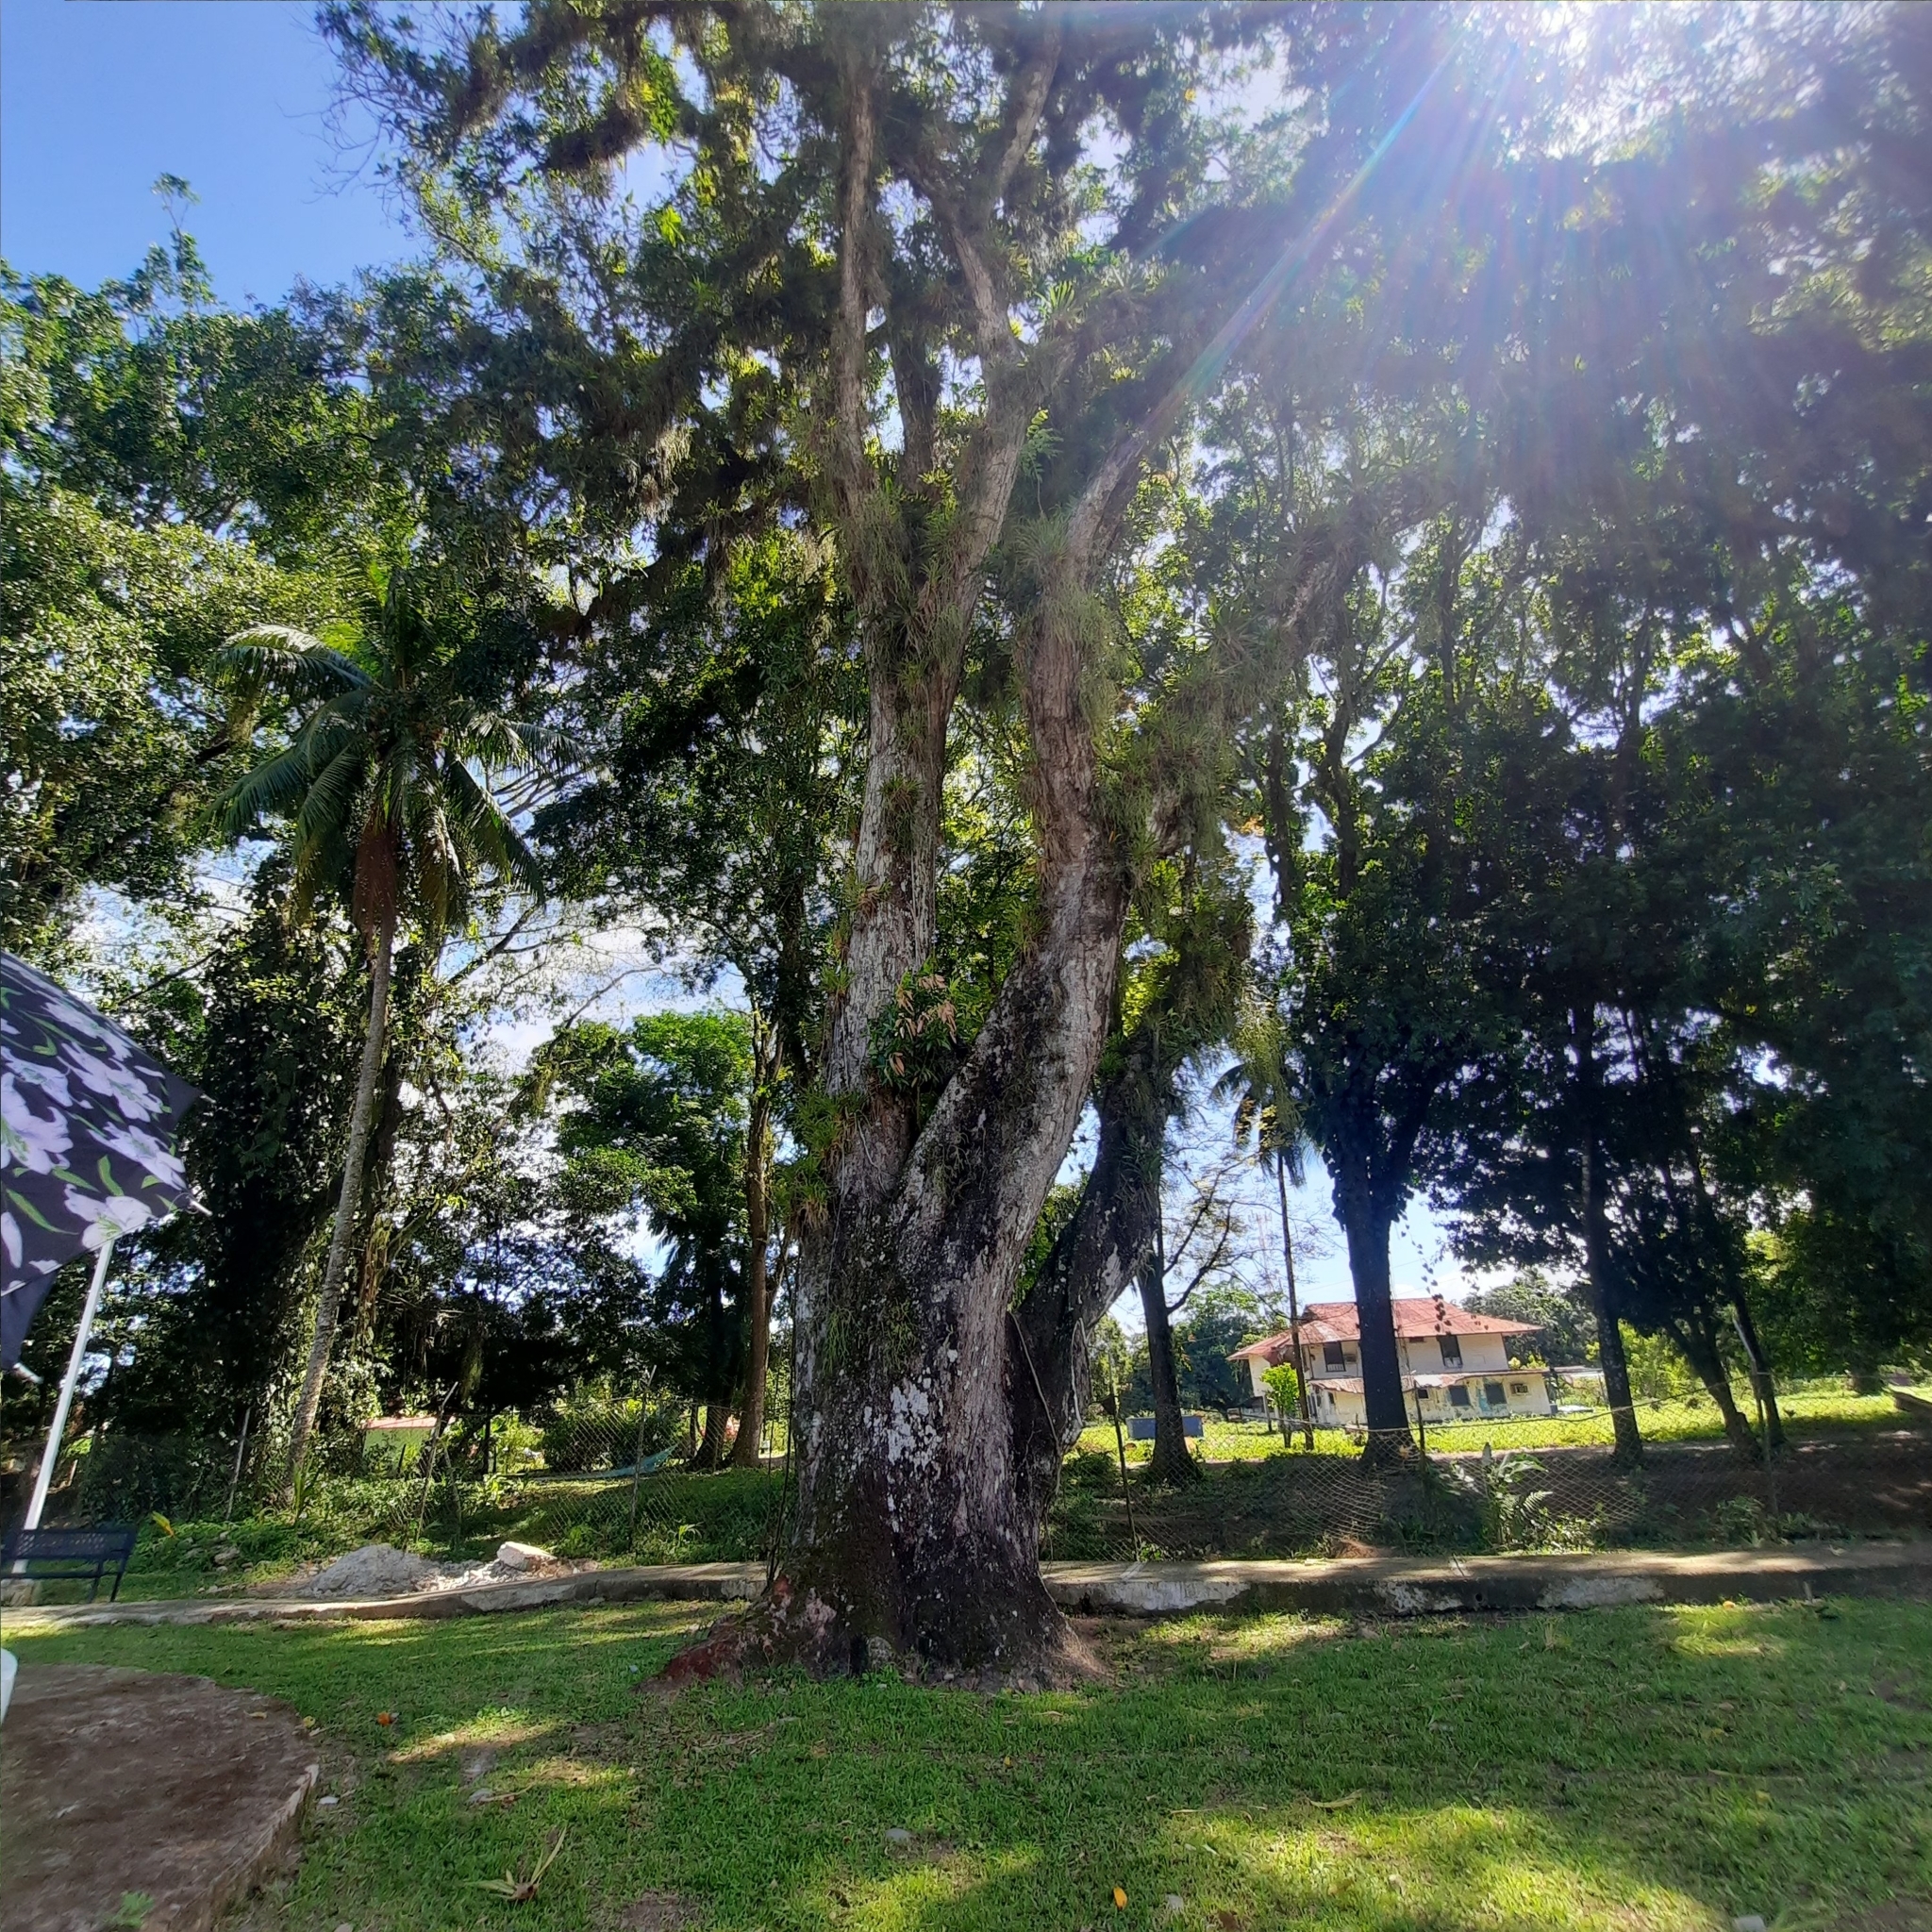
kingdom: Plantae
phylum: Tracheophyta
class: Magnoliopsida
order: Sapindales
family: Anacardiaceae
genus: Mangifera
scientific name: Mangifera indica
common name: Mango
